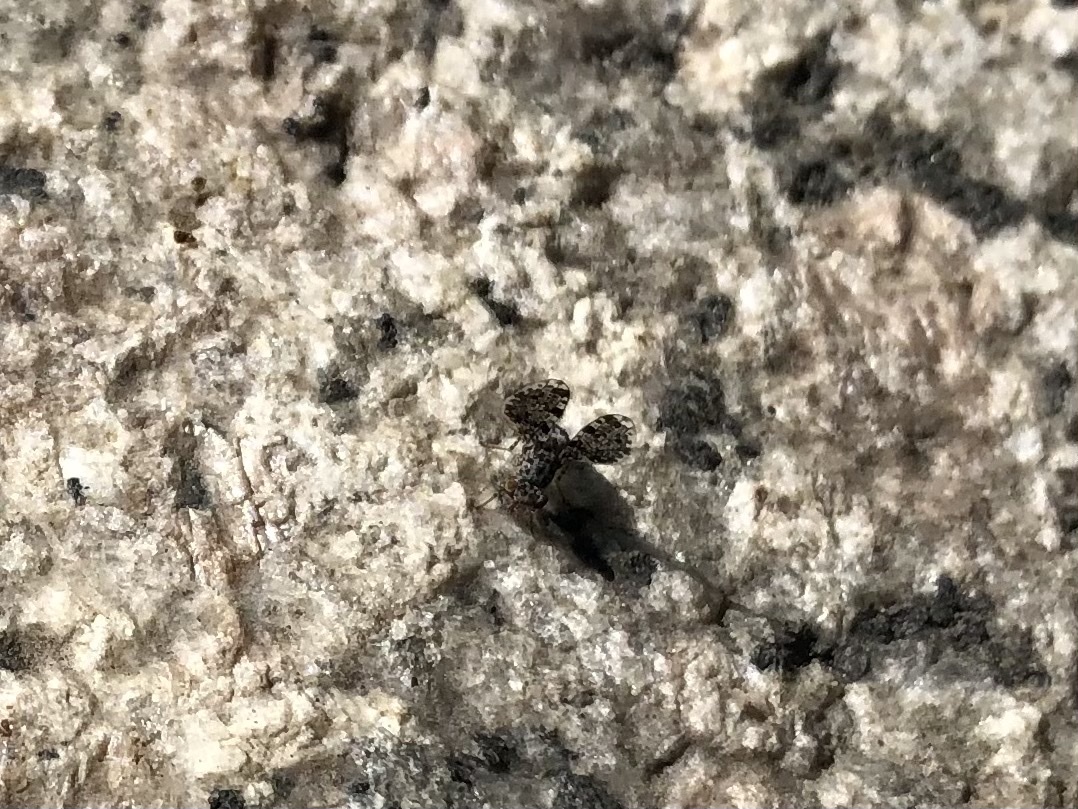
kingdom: Animalia
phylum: Arthropoda
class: Insecta
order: Diptera
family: Ulidiidae
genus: Callopistromyia
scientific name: Callopistromyia annulipes
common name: Peacock fly
